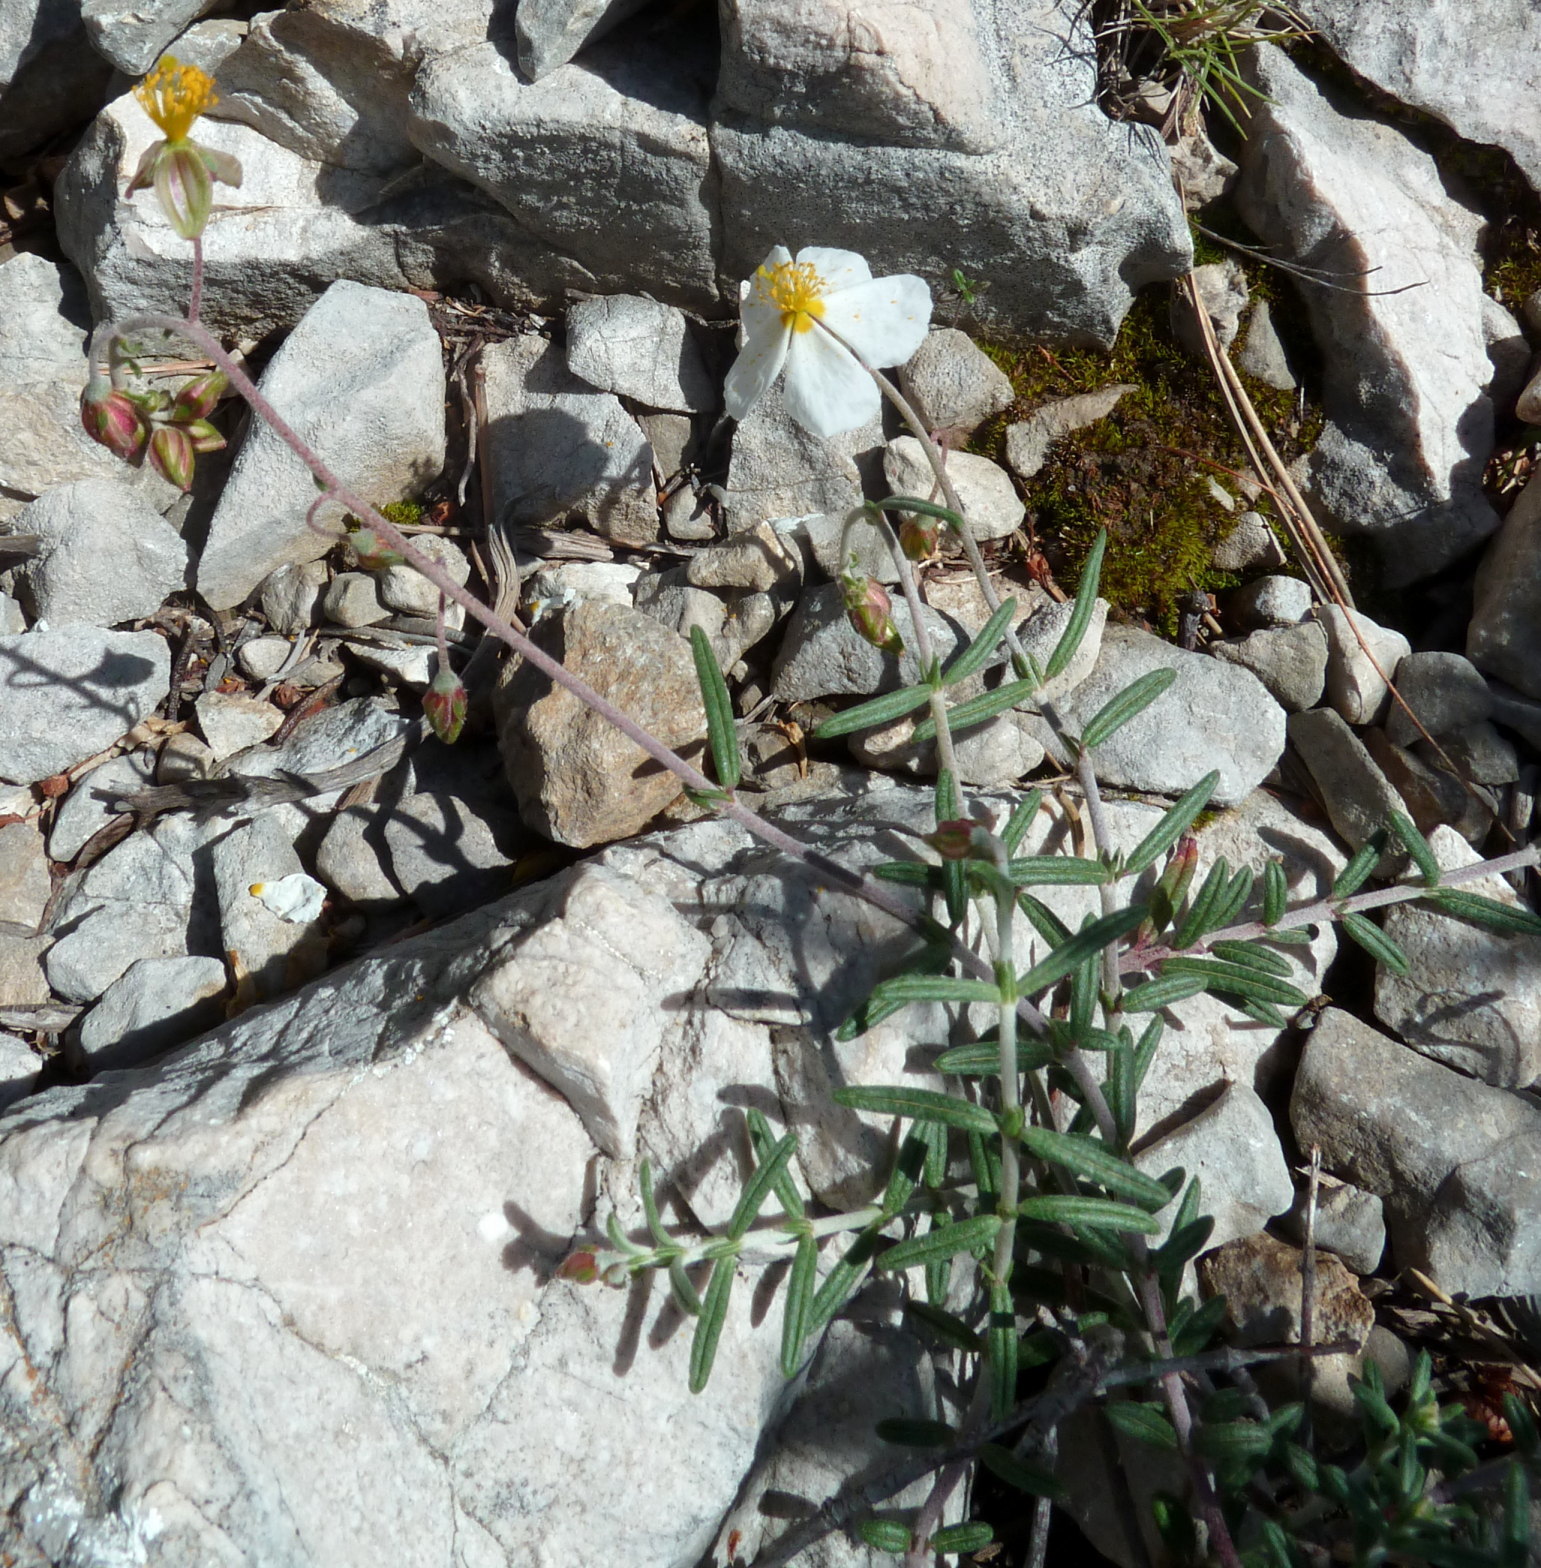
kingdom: Plantae
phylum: Tracheophyta
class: Magnoliopsida
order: Malvales
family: Cistaceae
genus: Helianthemum
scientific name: Helianthemum violaceum
